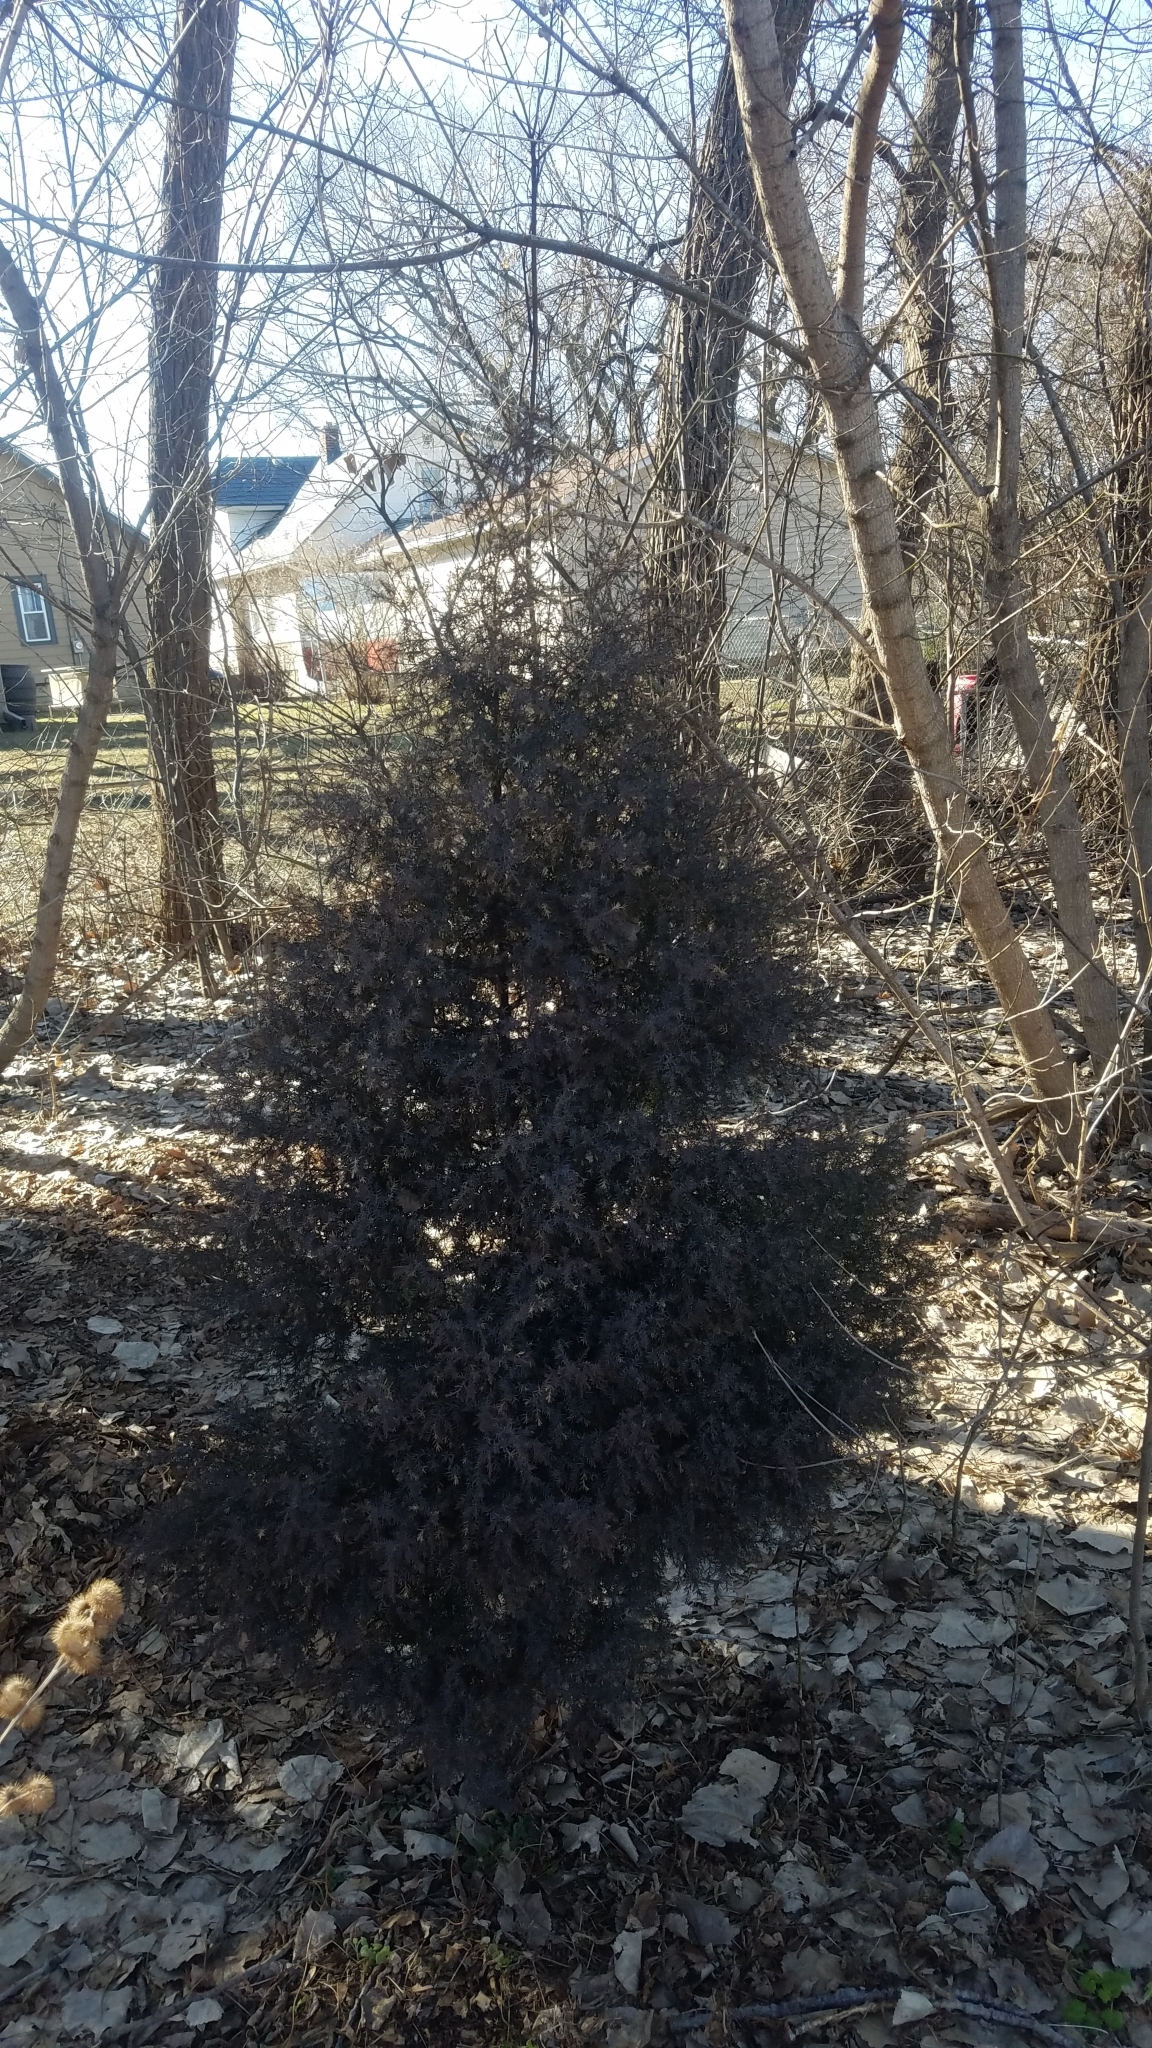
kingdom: Plantae
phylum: Tracheophyta
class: Pinopsida
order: Pinales
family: Cupressaceae
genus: Juniperus
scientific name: Juniperus virginiana
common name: Red juniper
